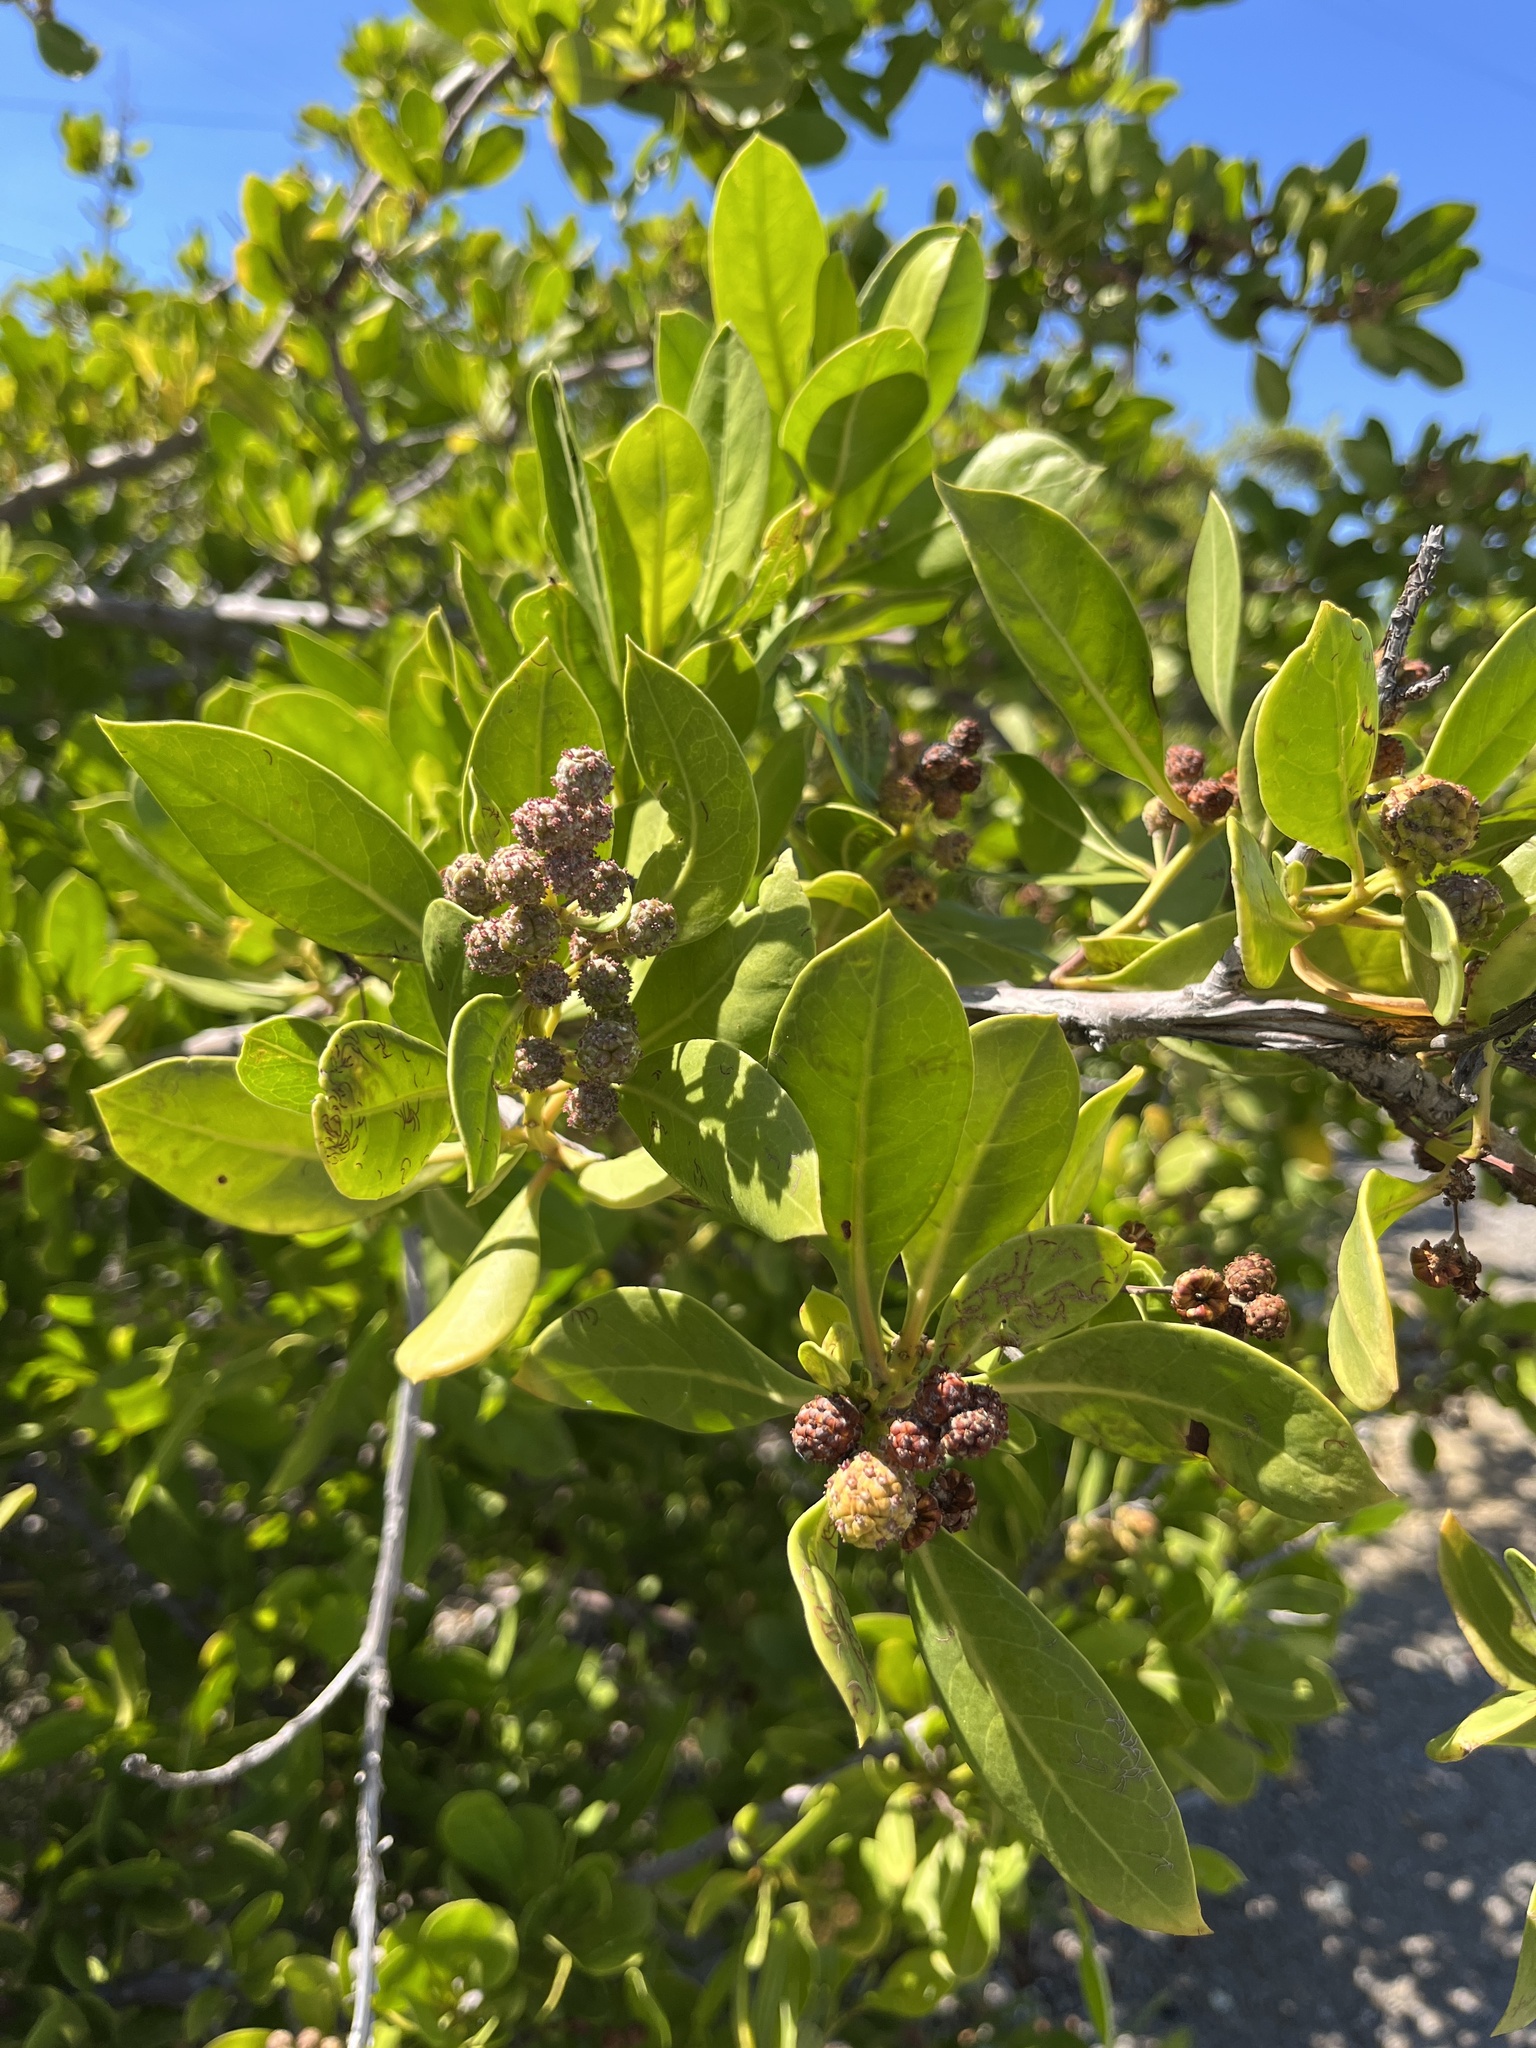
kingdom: Plantae
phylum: Tracheophyta
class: Magnoliopsida
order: Myrtales
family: Combretaceae
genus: Conocarpus
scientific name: Conocarpus erectus
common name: Button mangrove
